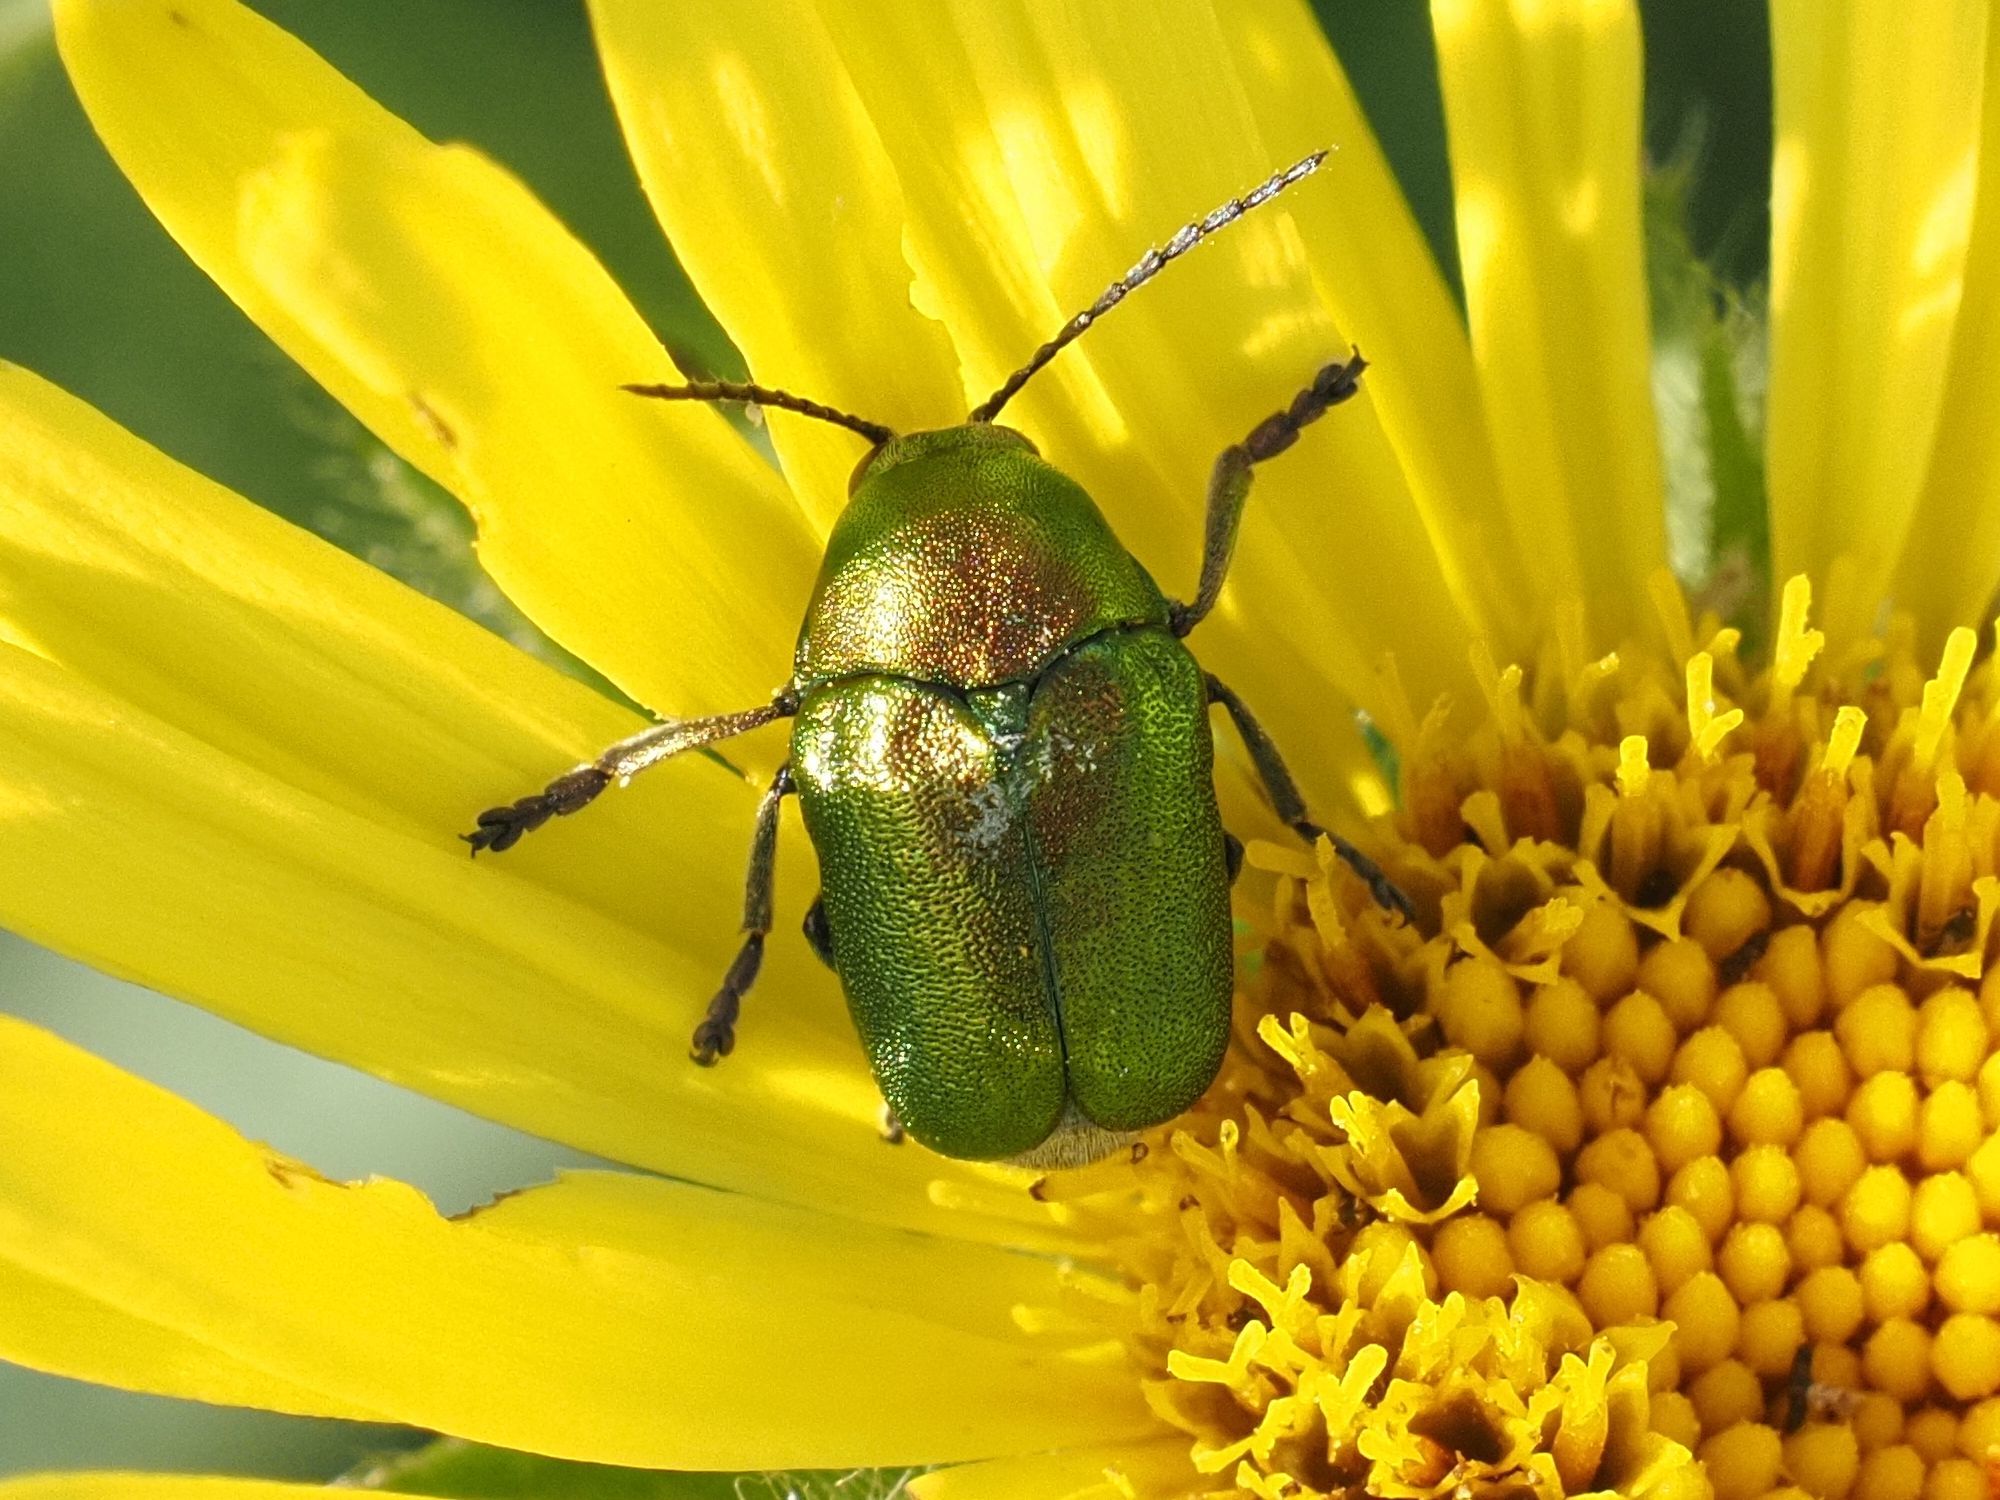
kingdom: Animalia
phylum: Arthropoda
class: Insecta
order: Coleoptera
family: Chrysomelidae
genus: Cryptocephalus
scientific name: Cryptocephalus sericeus
